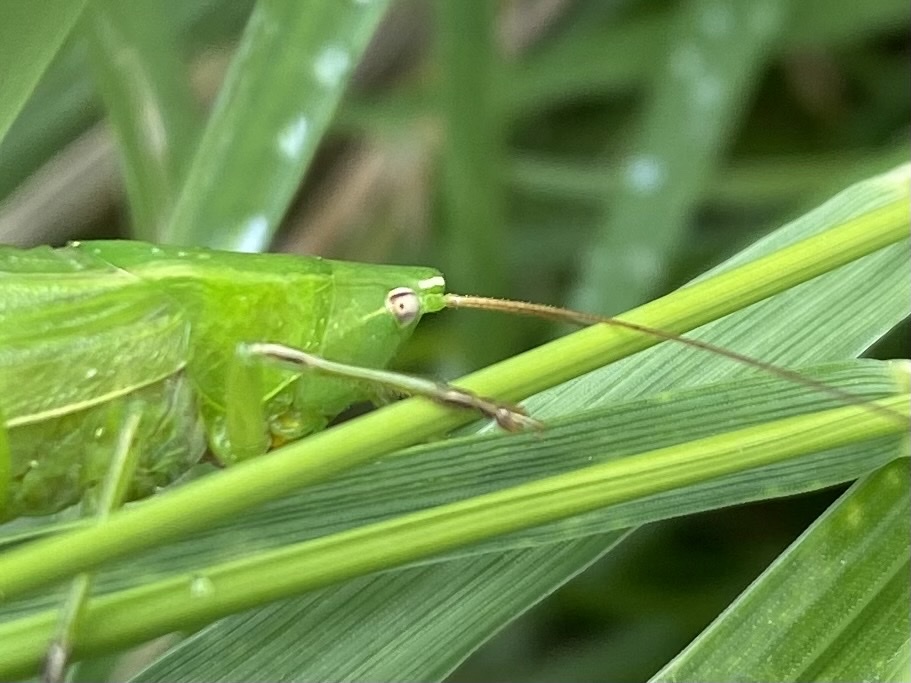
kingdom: Animalia
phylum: Arthropoda
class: Insecta
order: Orthoptera
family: Tettigoniidae
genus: Ruspolia
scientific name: Ruspolia nitidula
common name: Large conehead
